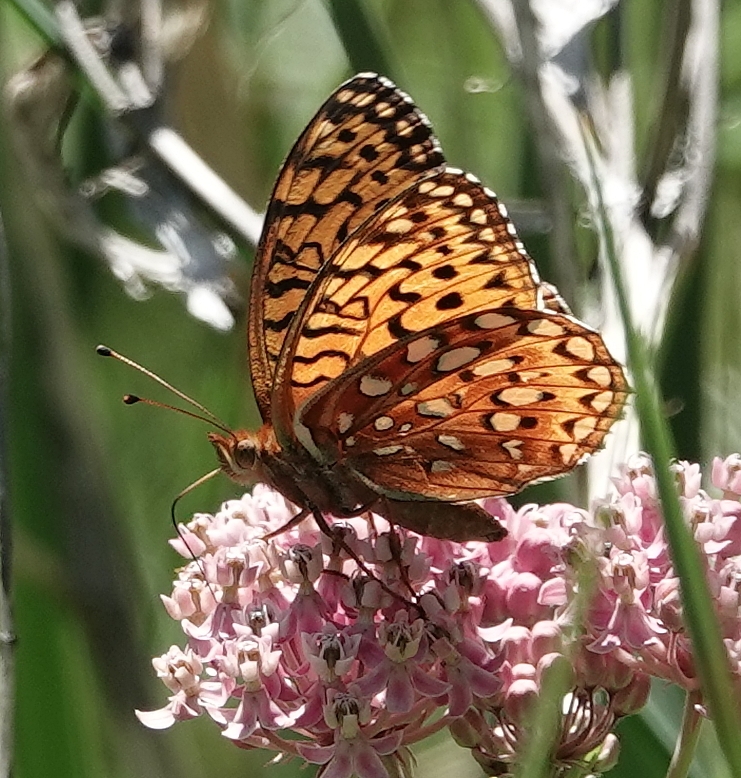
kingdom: Animalia
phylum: Arthropoda
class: Insecta
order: Lepidoptera
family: Nymphalidae
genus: Speyeria
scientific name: Speyeria aphrodite
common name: Aphrodite friitllary
